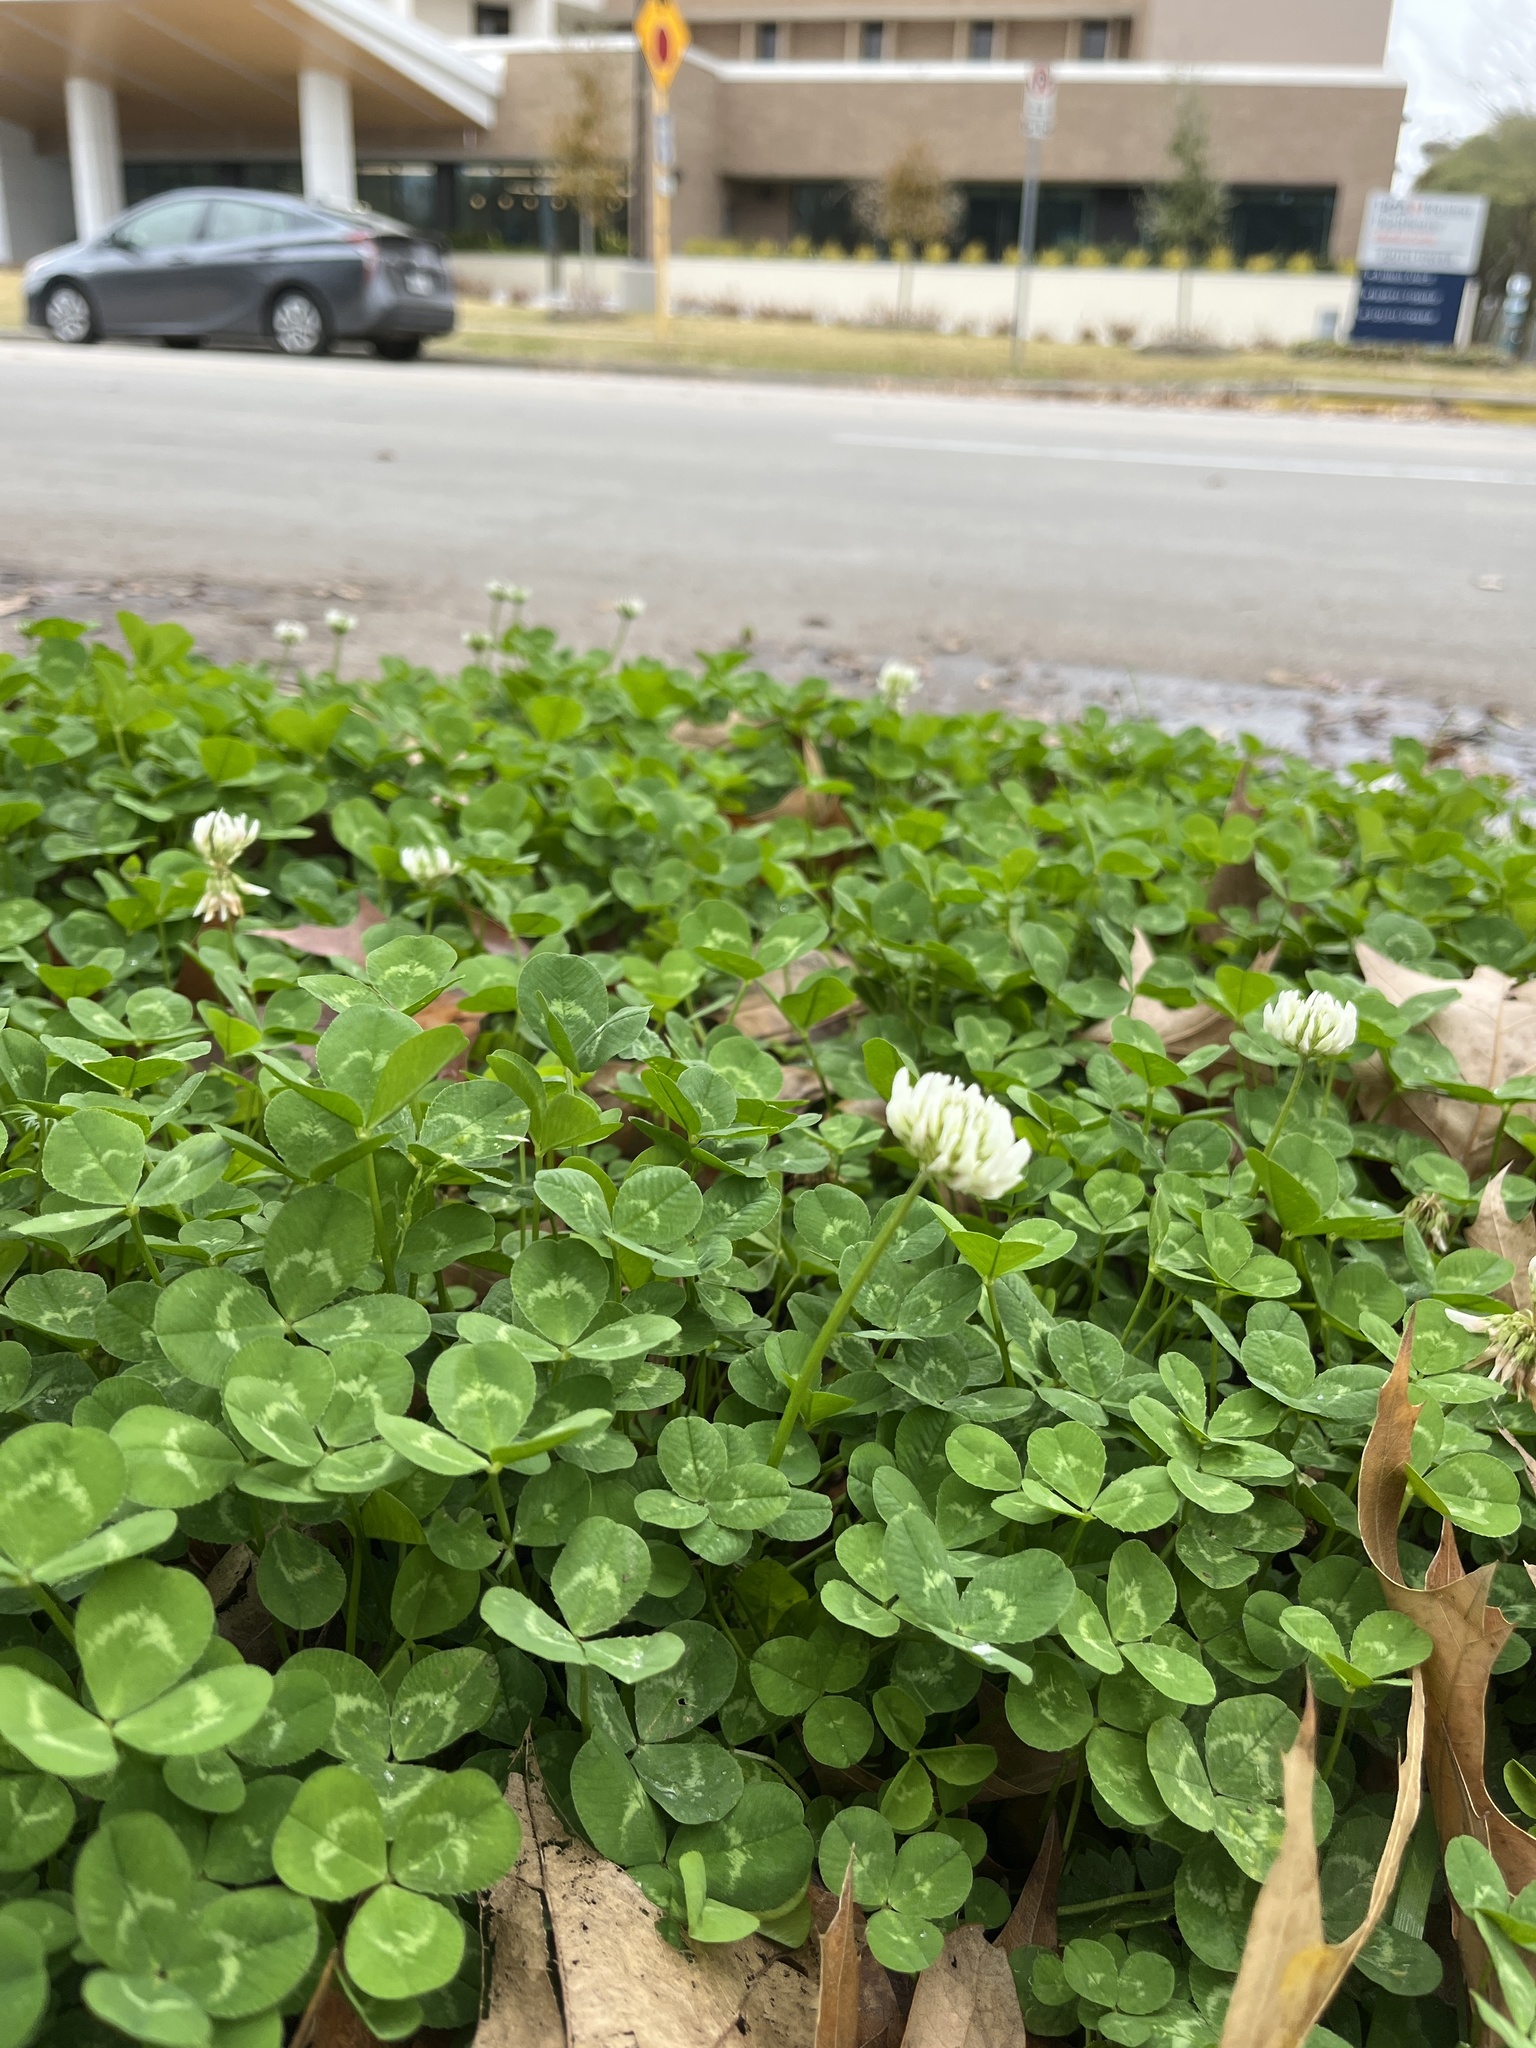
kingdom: Plantae
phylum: Tracheophyta
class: Magnoliopsida
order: Fabales
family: Fabaceae
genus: Trifolium
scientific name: Trifolium repens
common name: White clover
